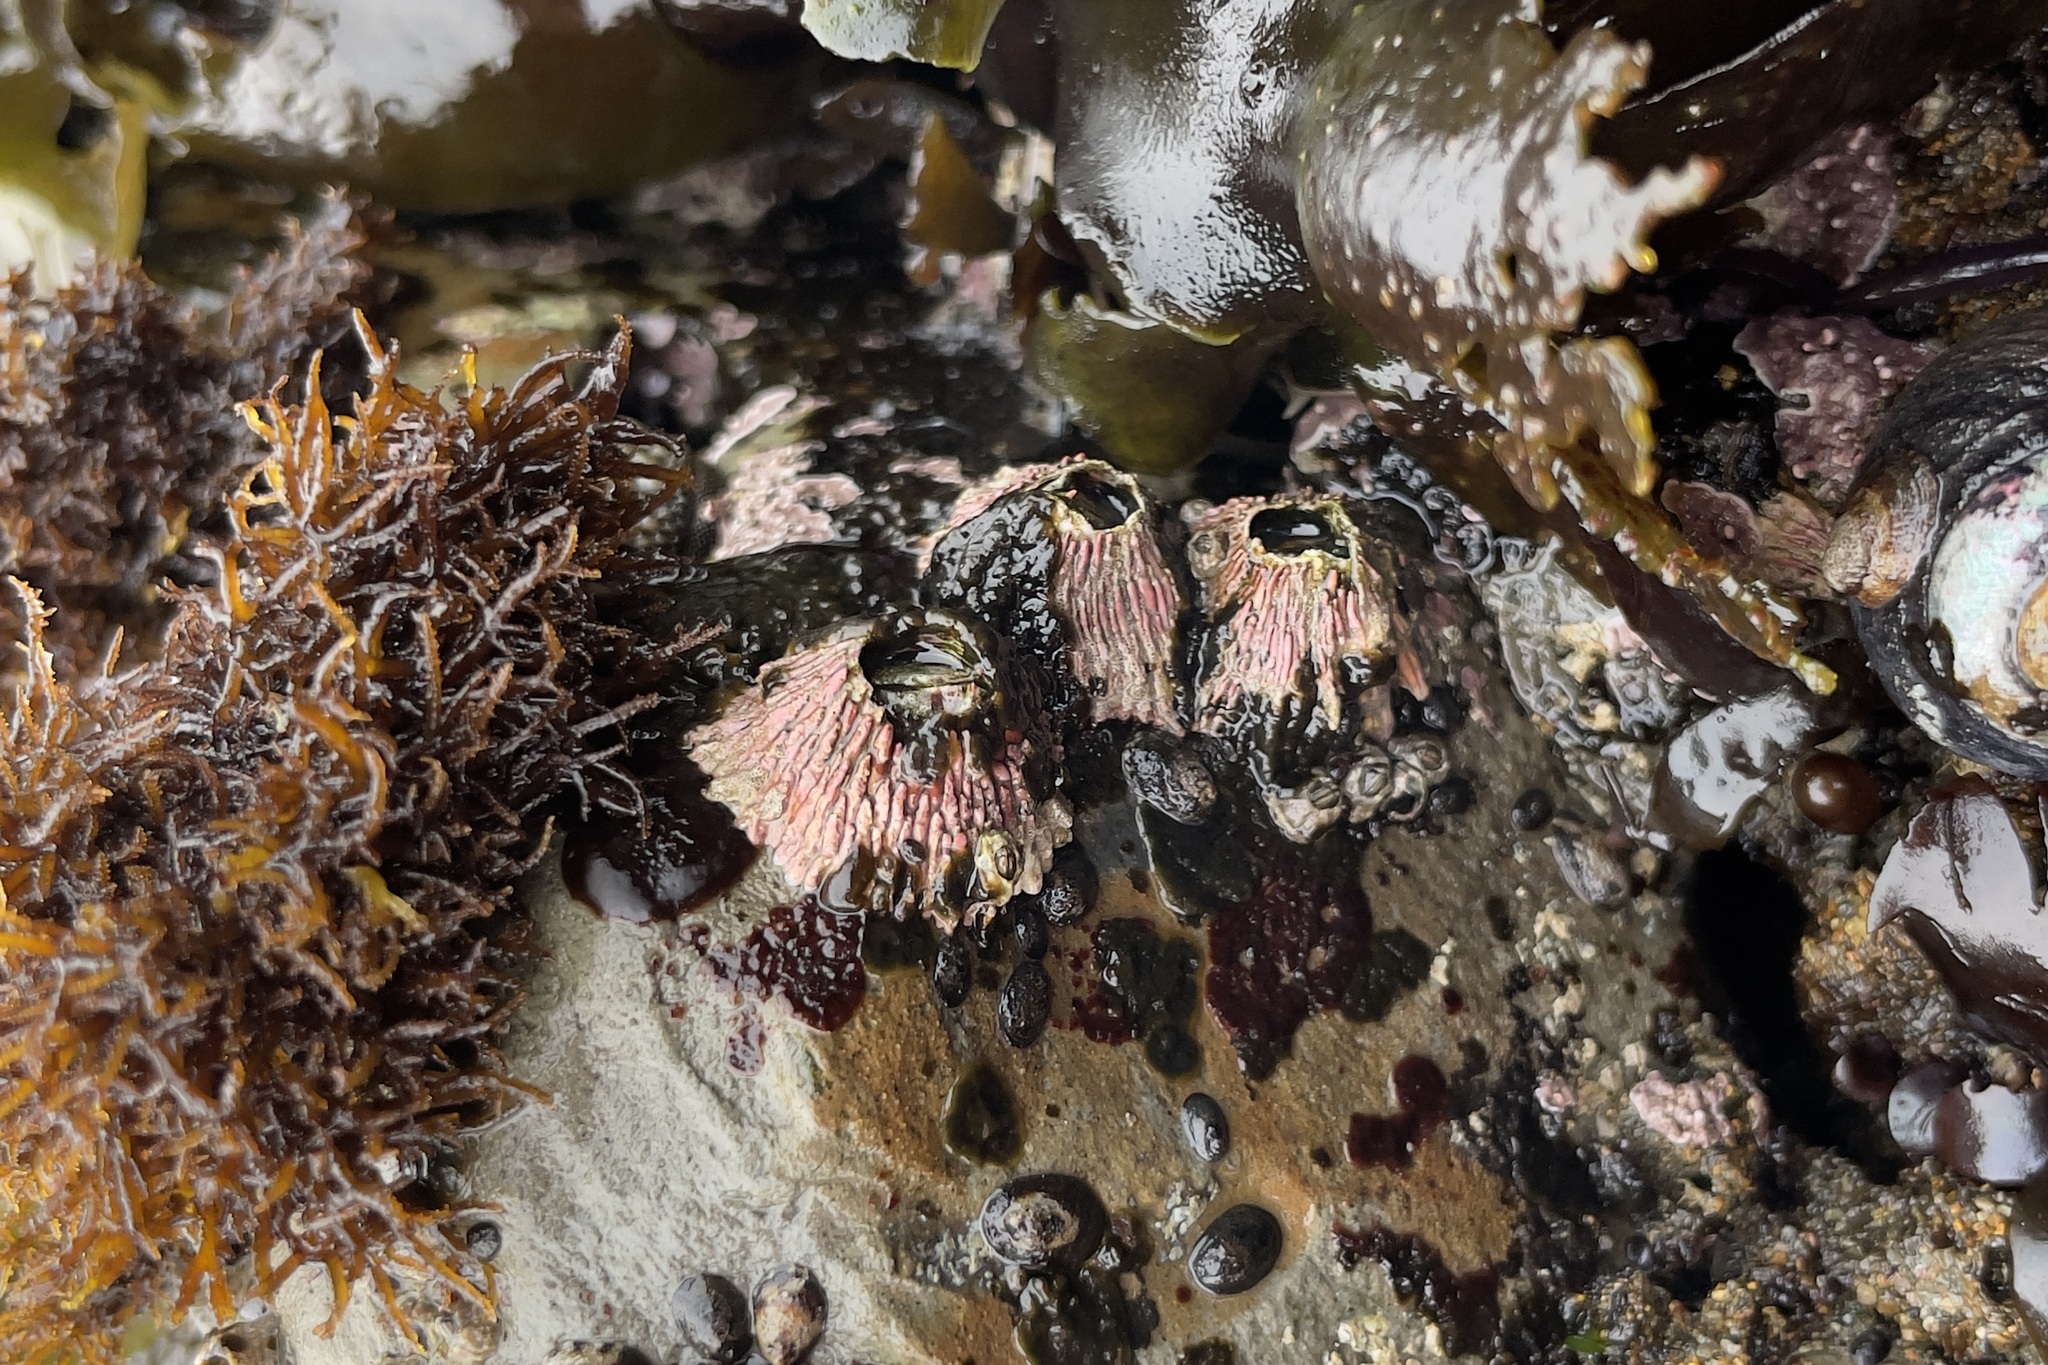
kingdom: Animalia
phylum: Arthropoda
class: Maxillopoda
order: Sessilia
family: Tetraclitidae
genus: Tetraclita
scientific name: Tetraclita rubescens
